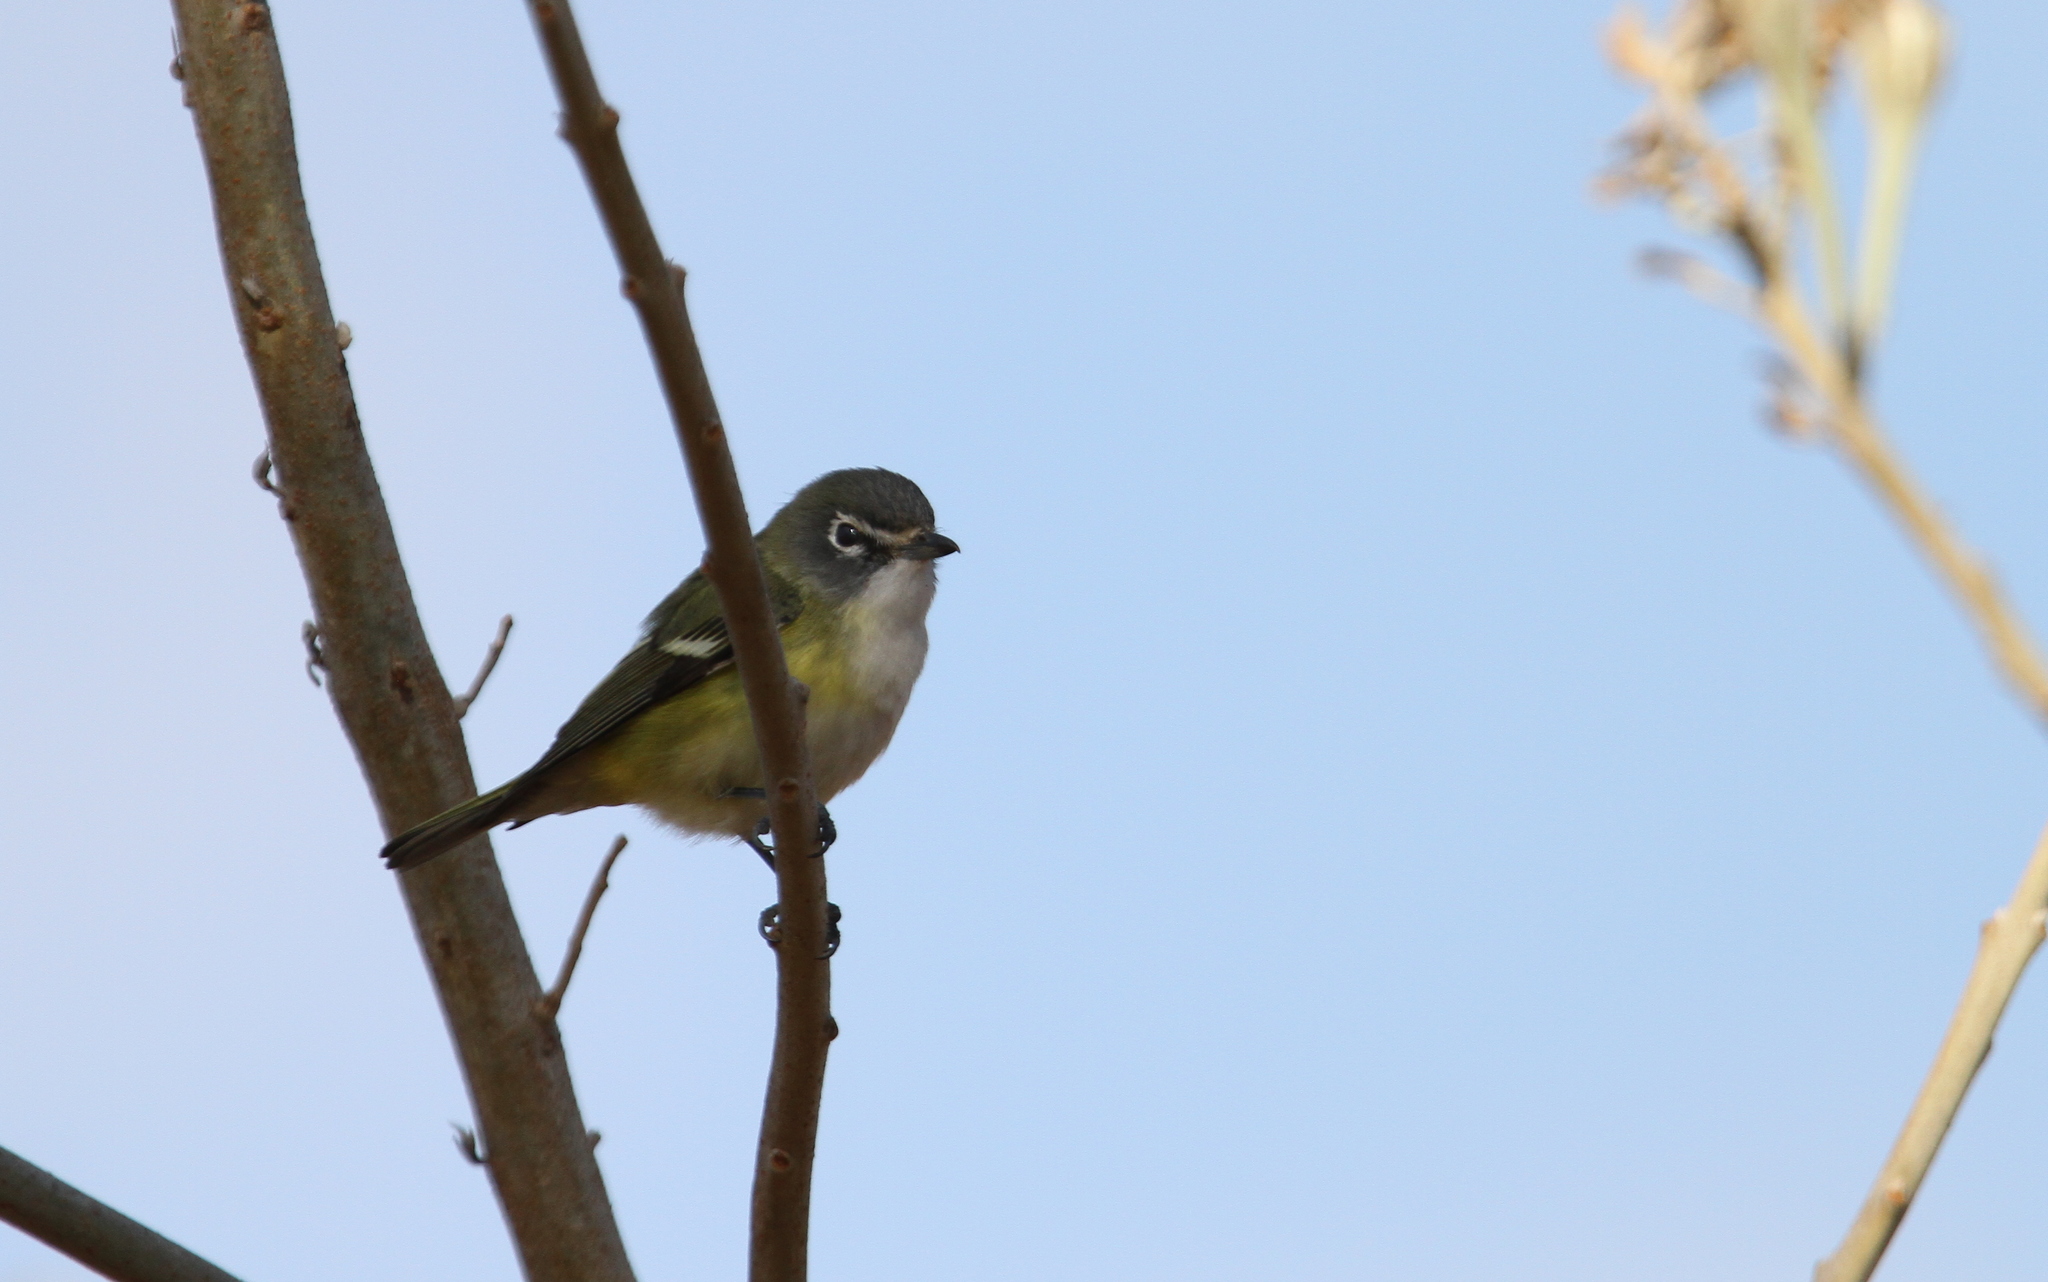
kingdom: Animalia
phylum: Chordata
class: Aves
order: Passeriformes
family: Vireonidae
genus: Vireo
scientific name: Vireo solitarius
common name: Blue-headed vireo
